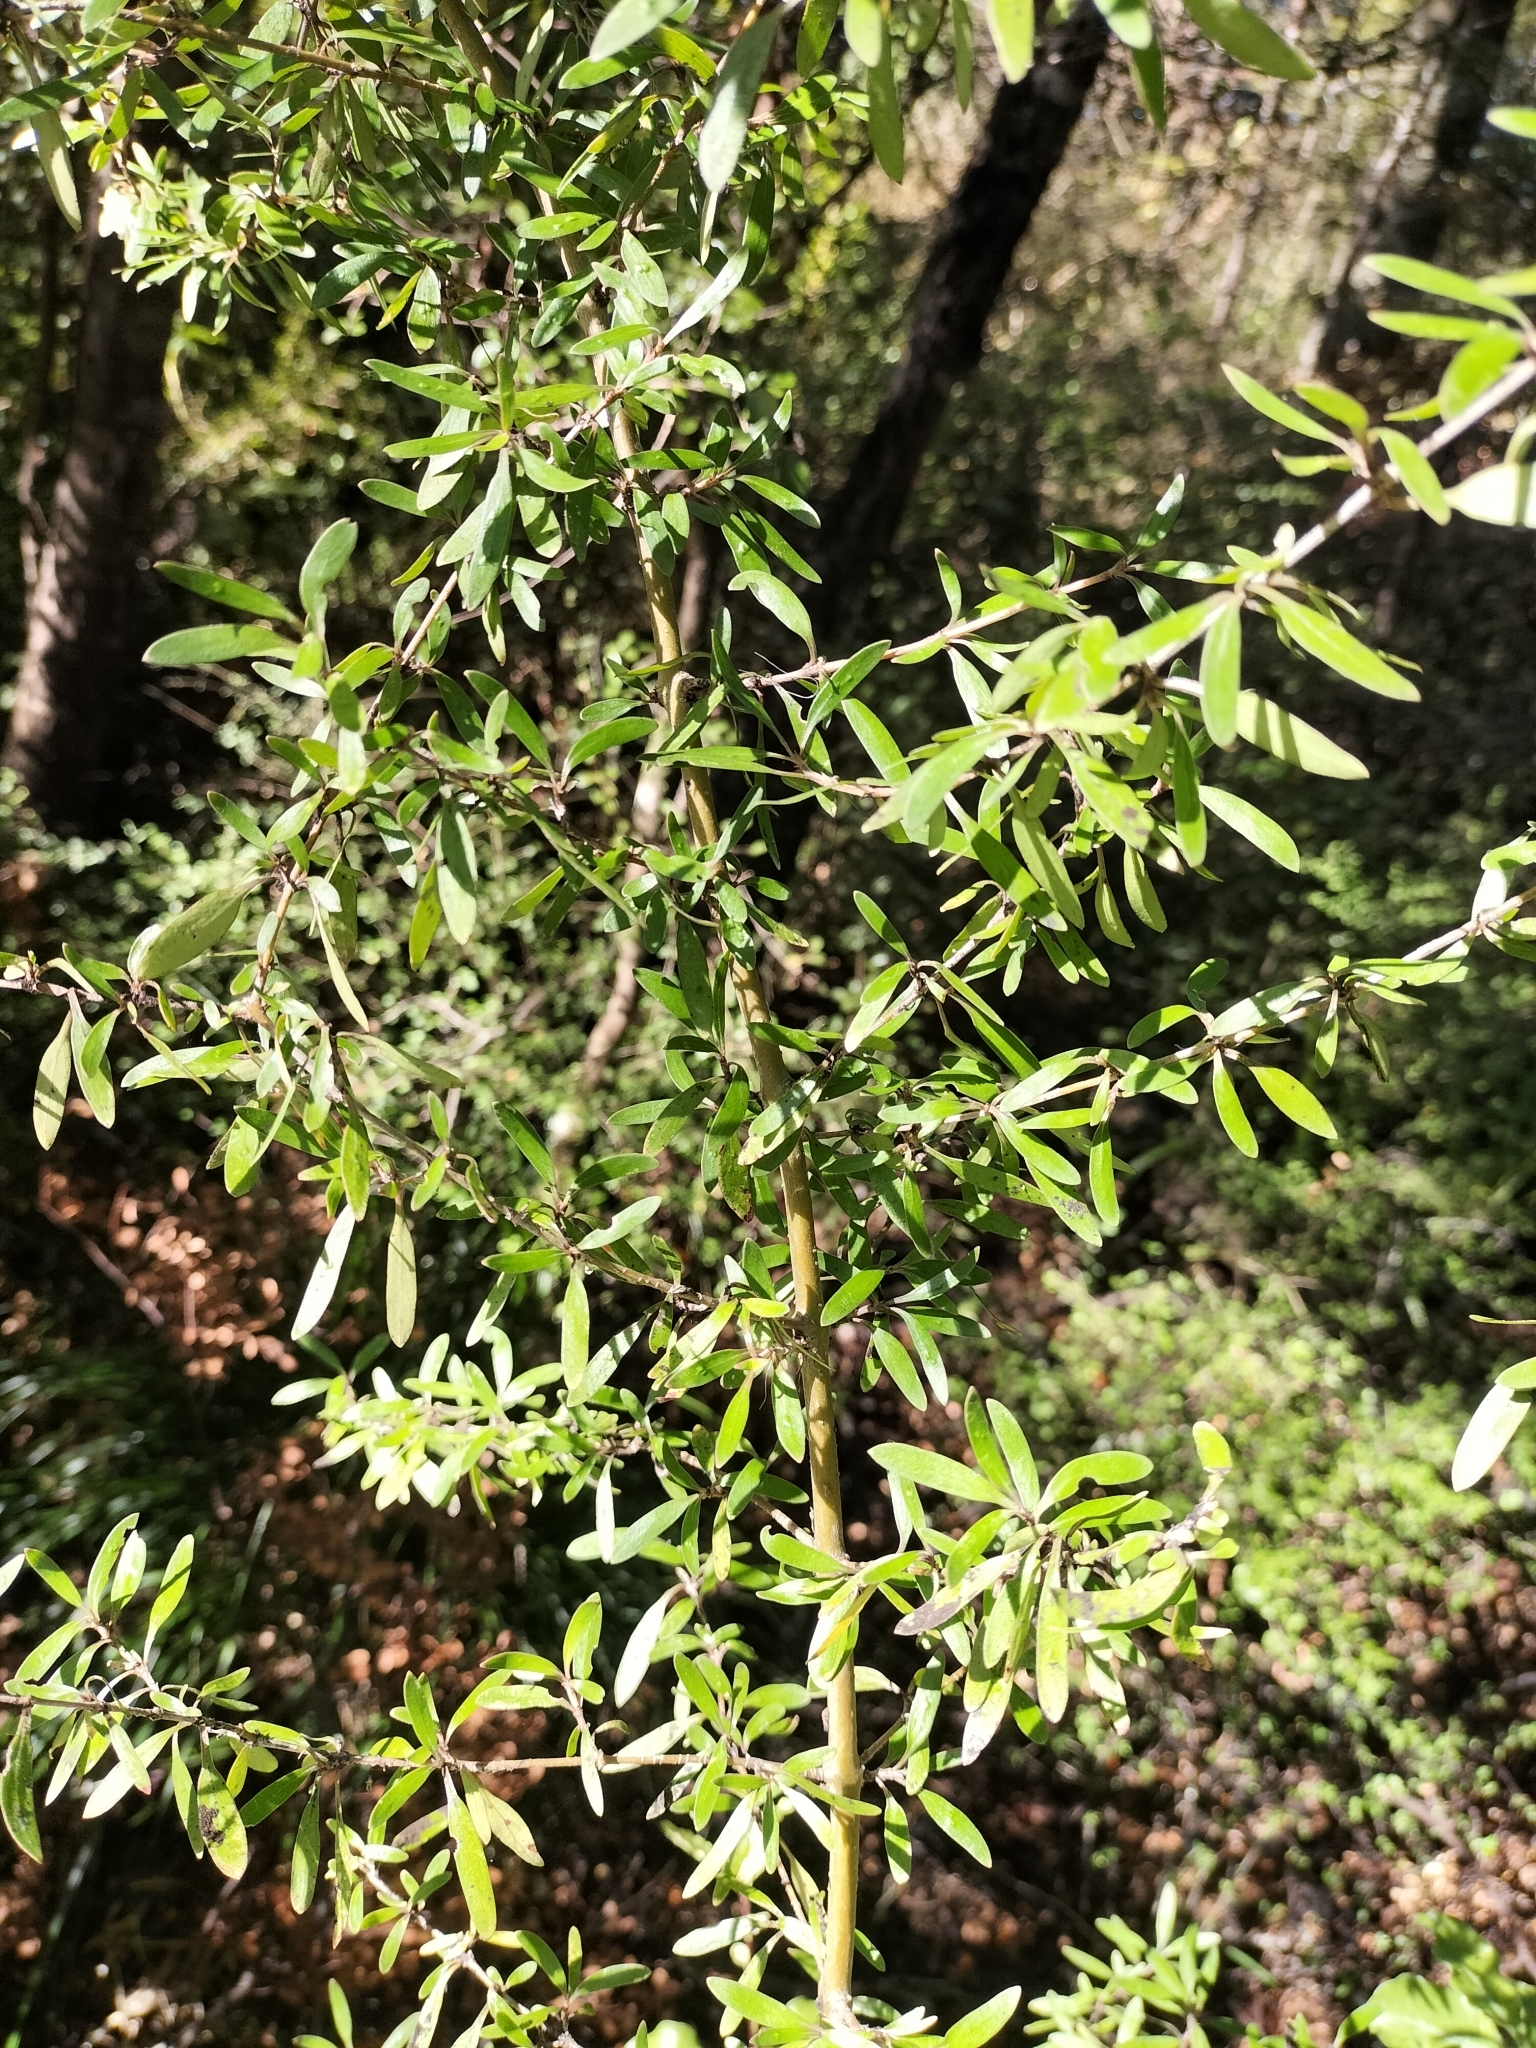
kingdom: Plantae
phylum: Tracheophyta
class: Magnoliopsida
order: Gentianales
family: Rubiaceae
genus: Coprosma
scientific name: Coprosma propinqua
